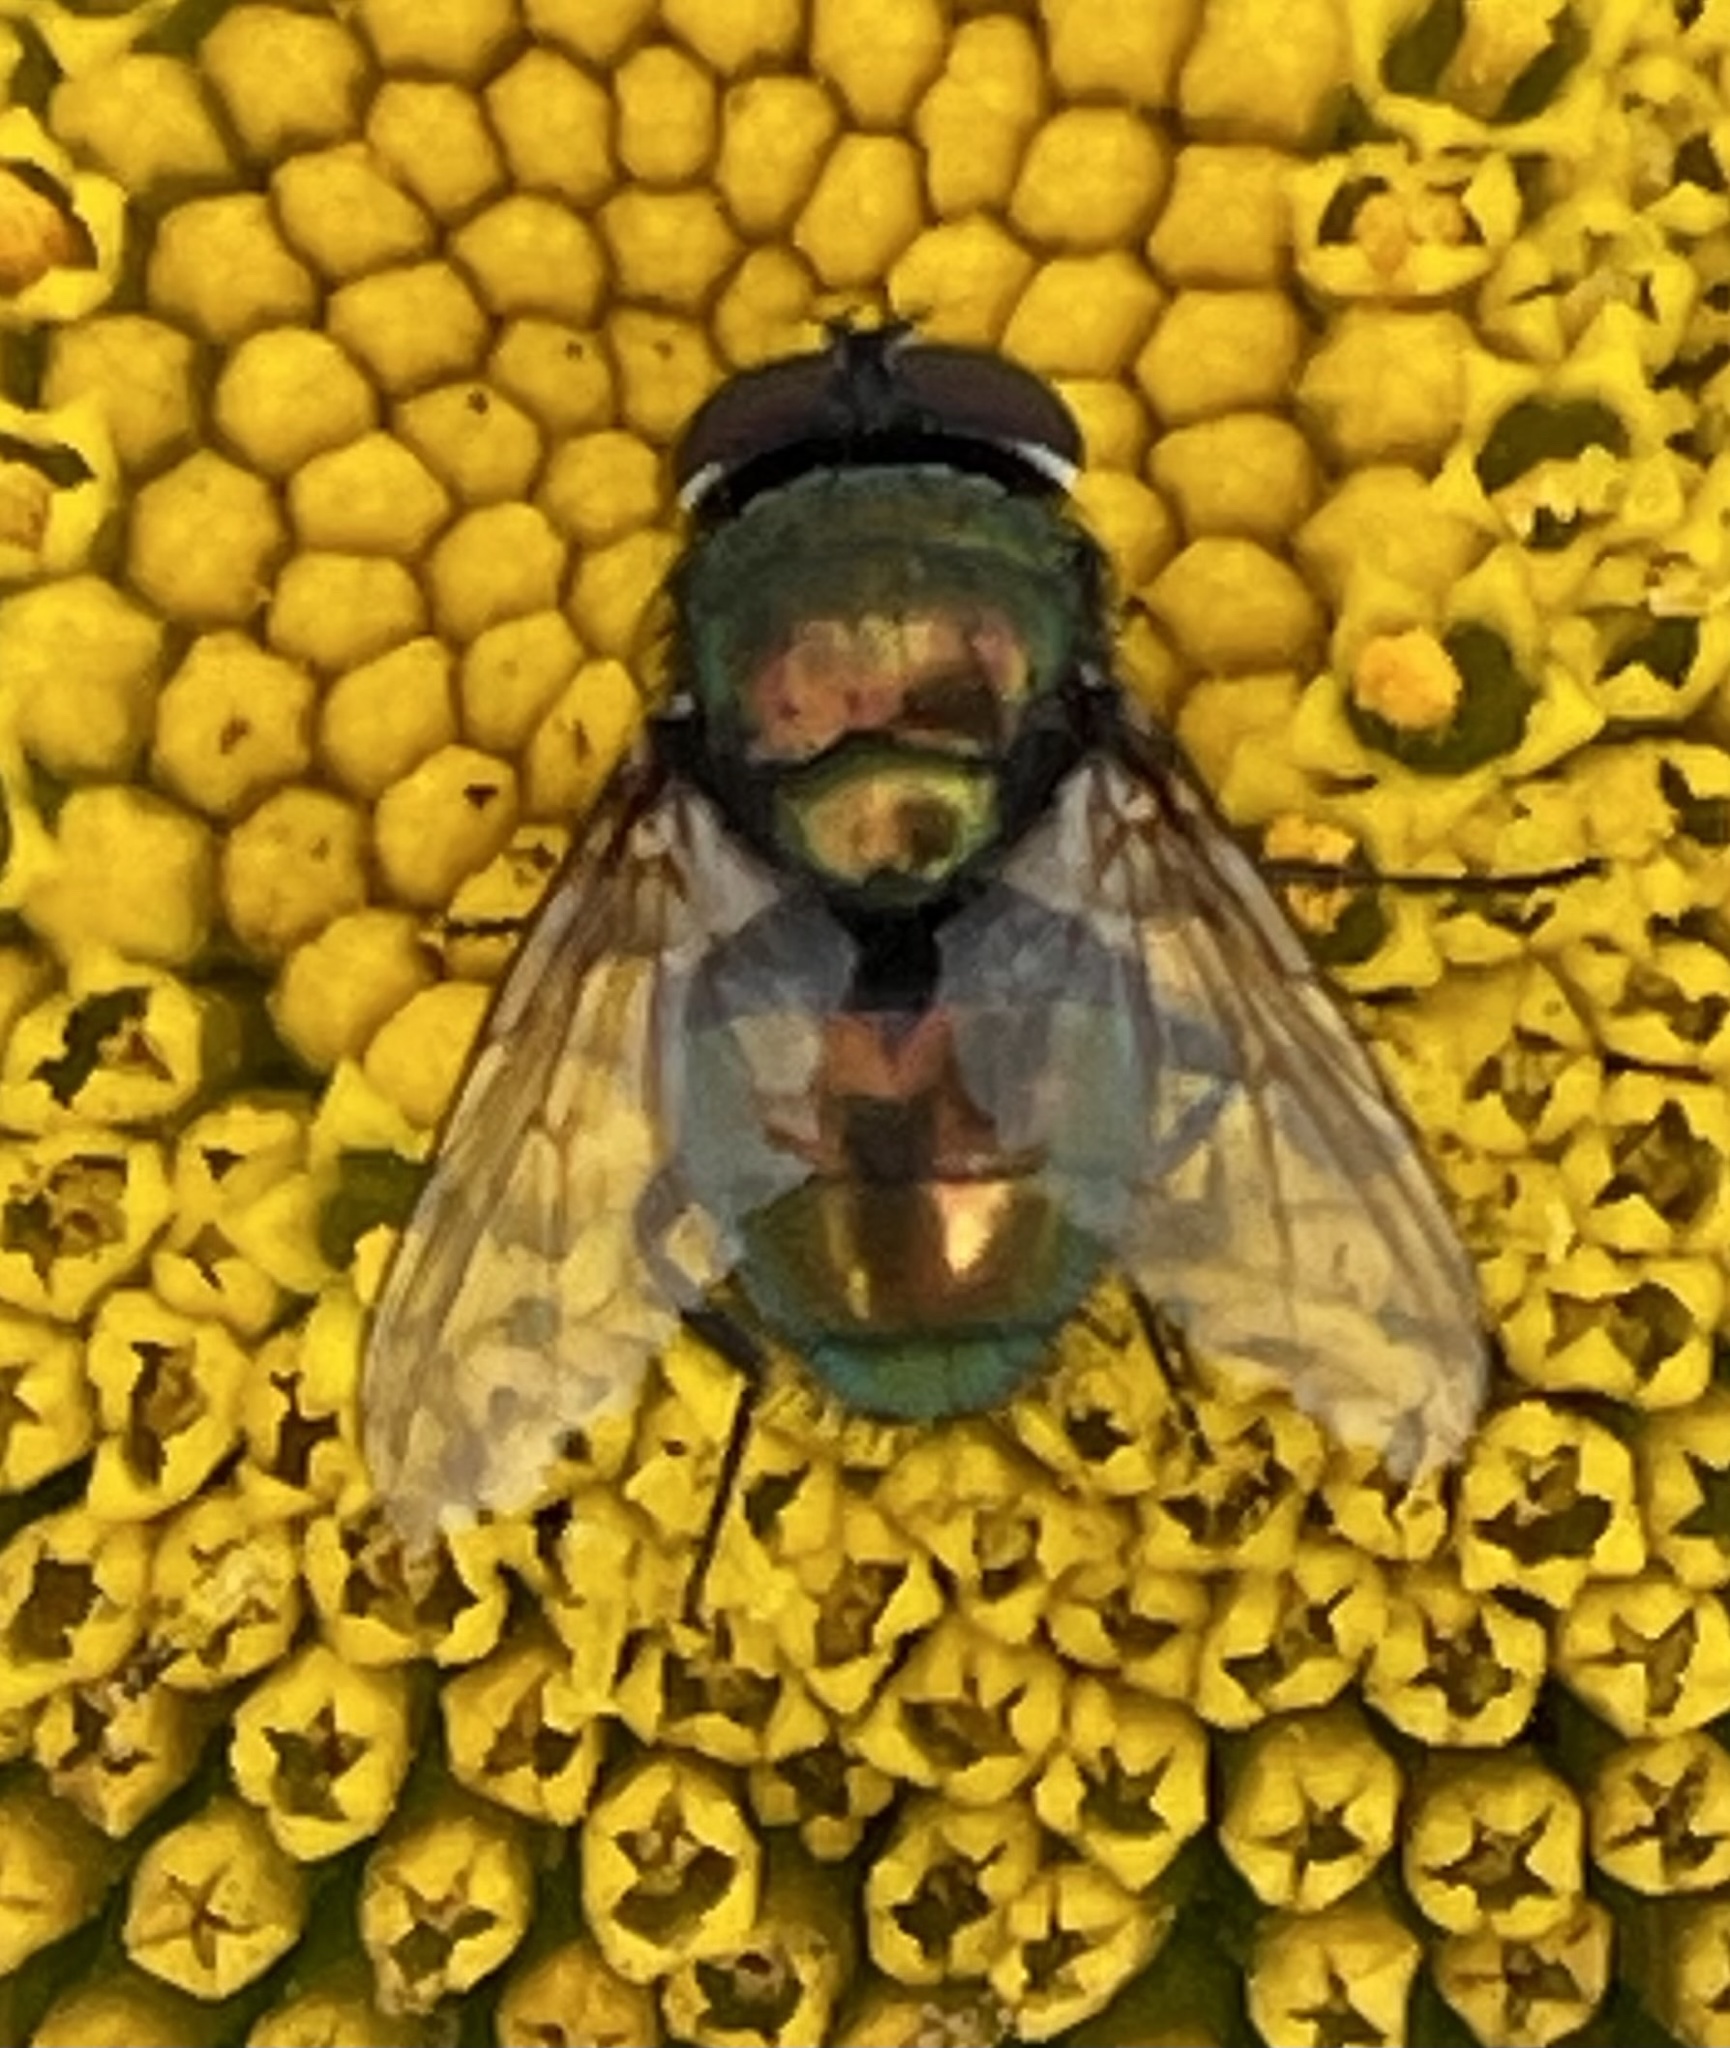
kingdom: Animalia
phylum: Arthropoda
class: Insecta
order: Diptera
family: Calliphoridae
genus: Lucilia
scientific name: Lucilia
